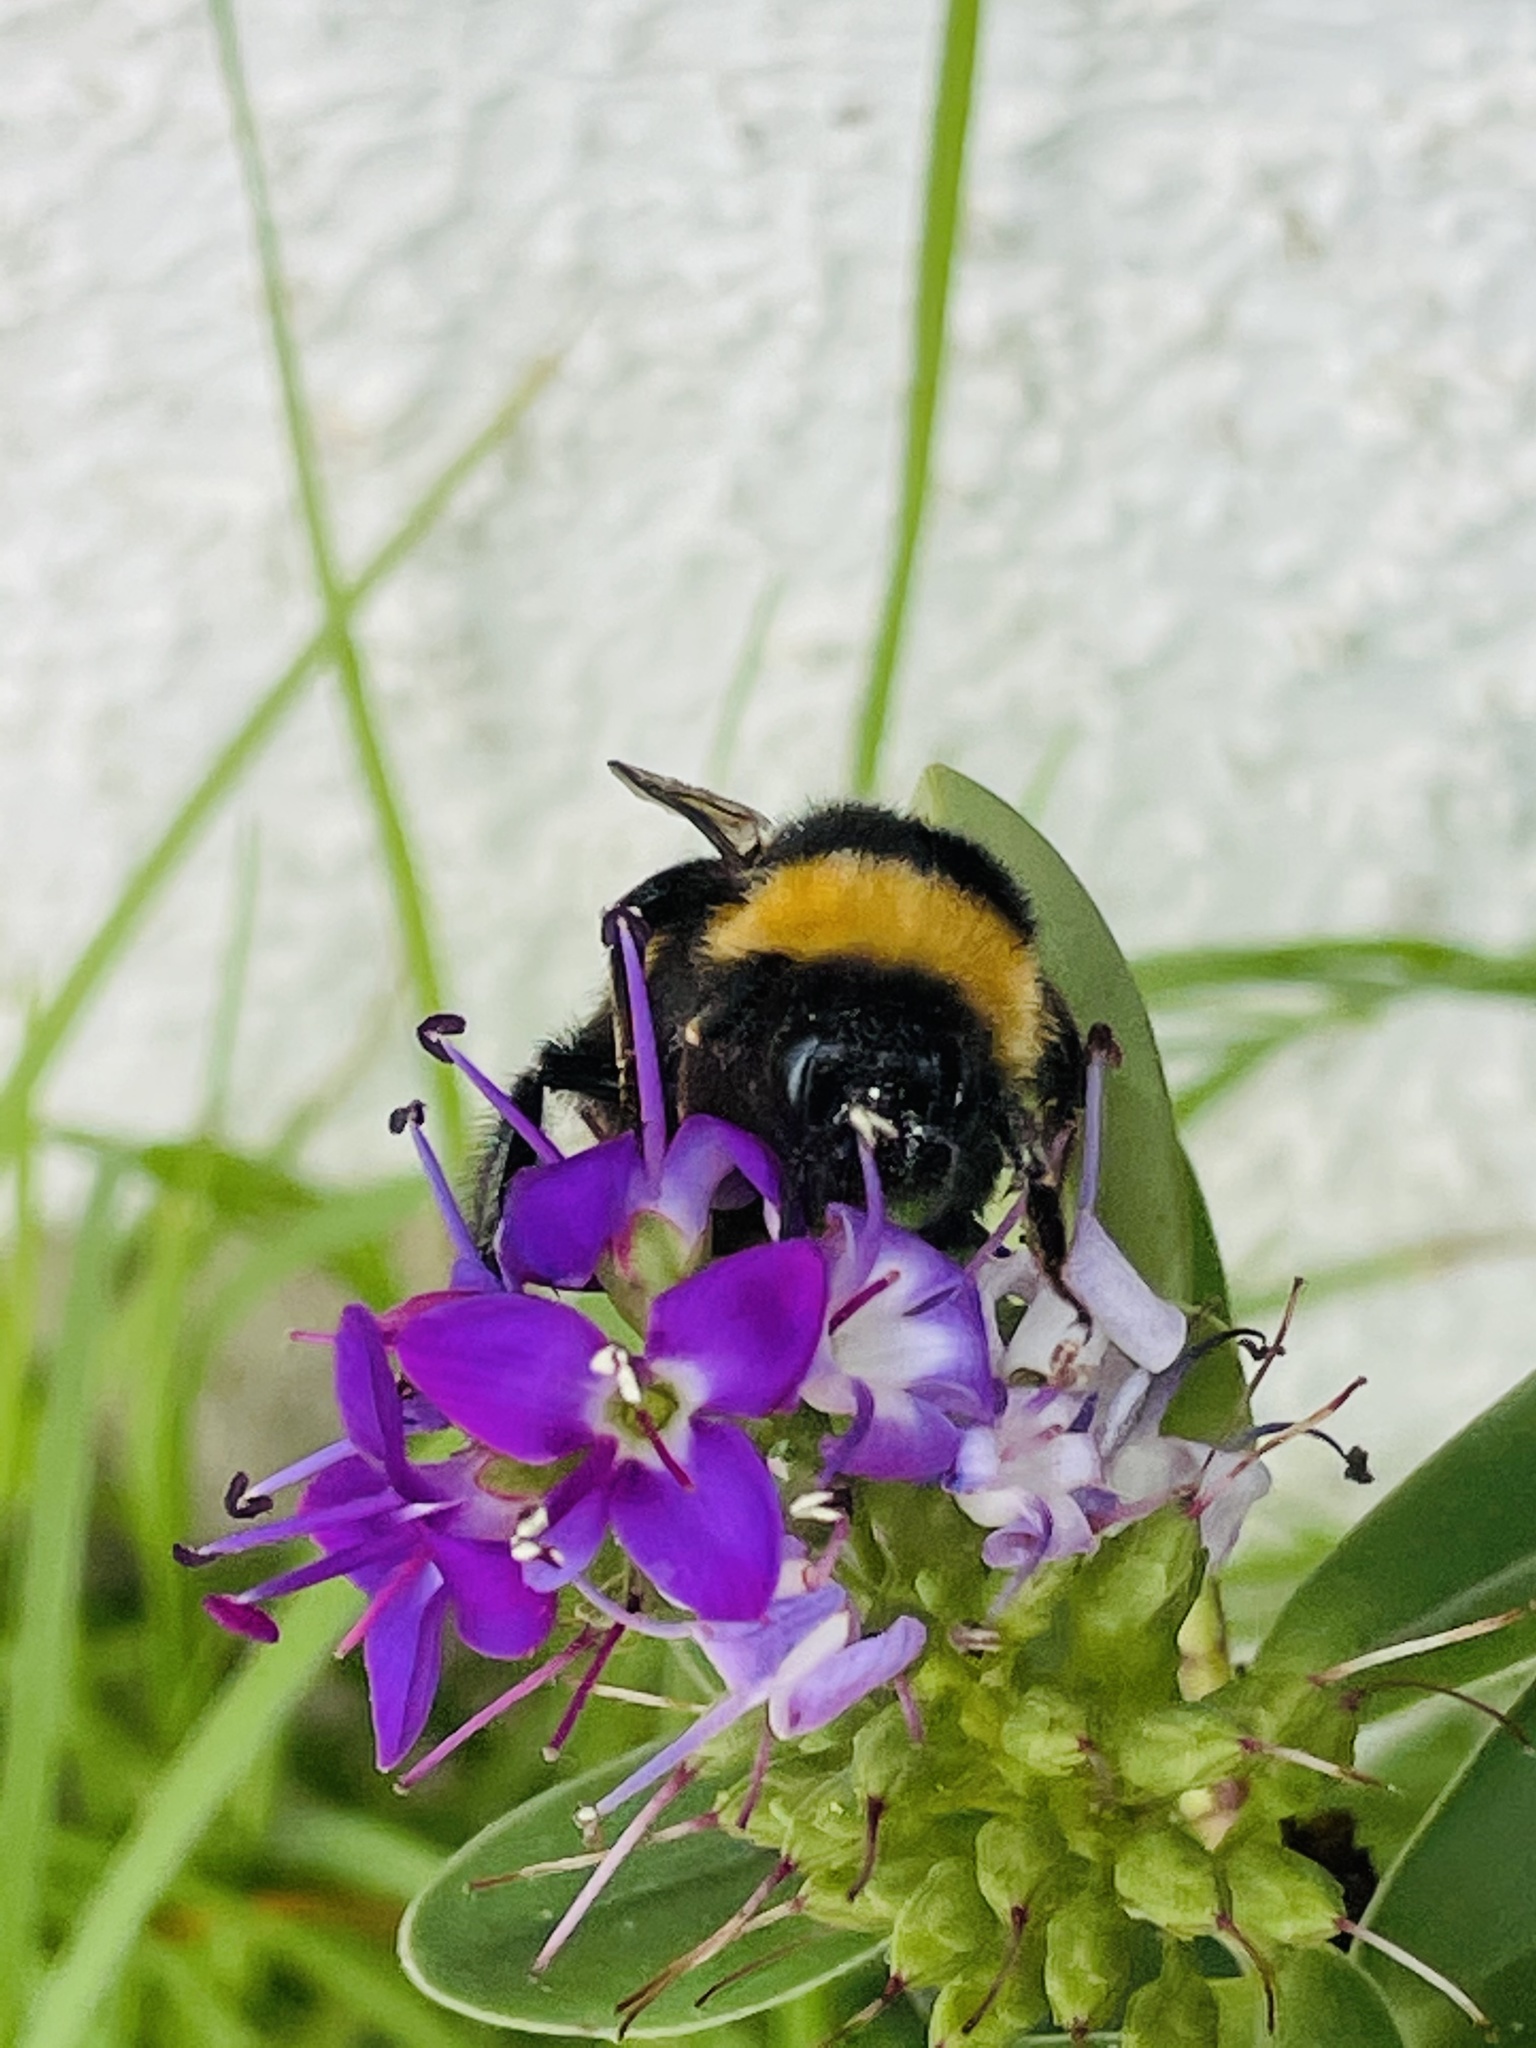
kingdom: Animalia
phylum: Arthropoda
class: Insecta
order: Hymenoptera
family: Apidae
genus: Bombus
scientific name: Bombus terrestris
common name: Buff-tailed bumblebee
